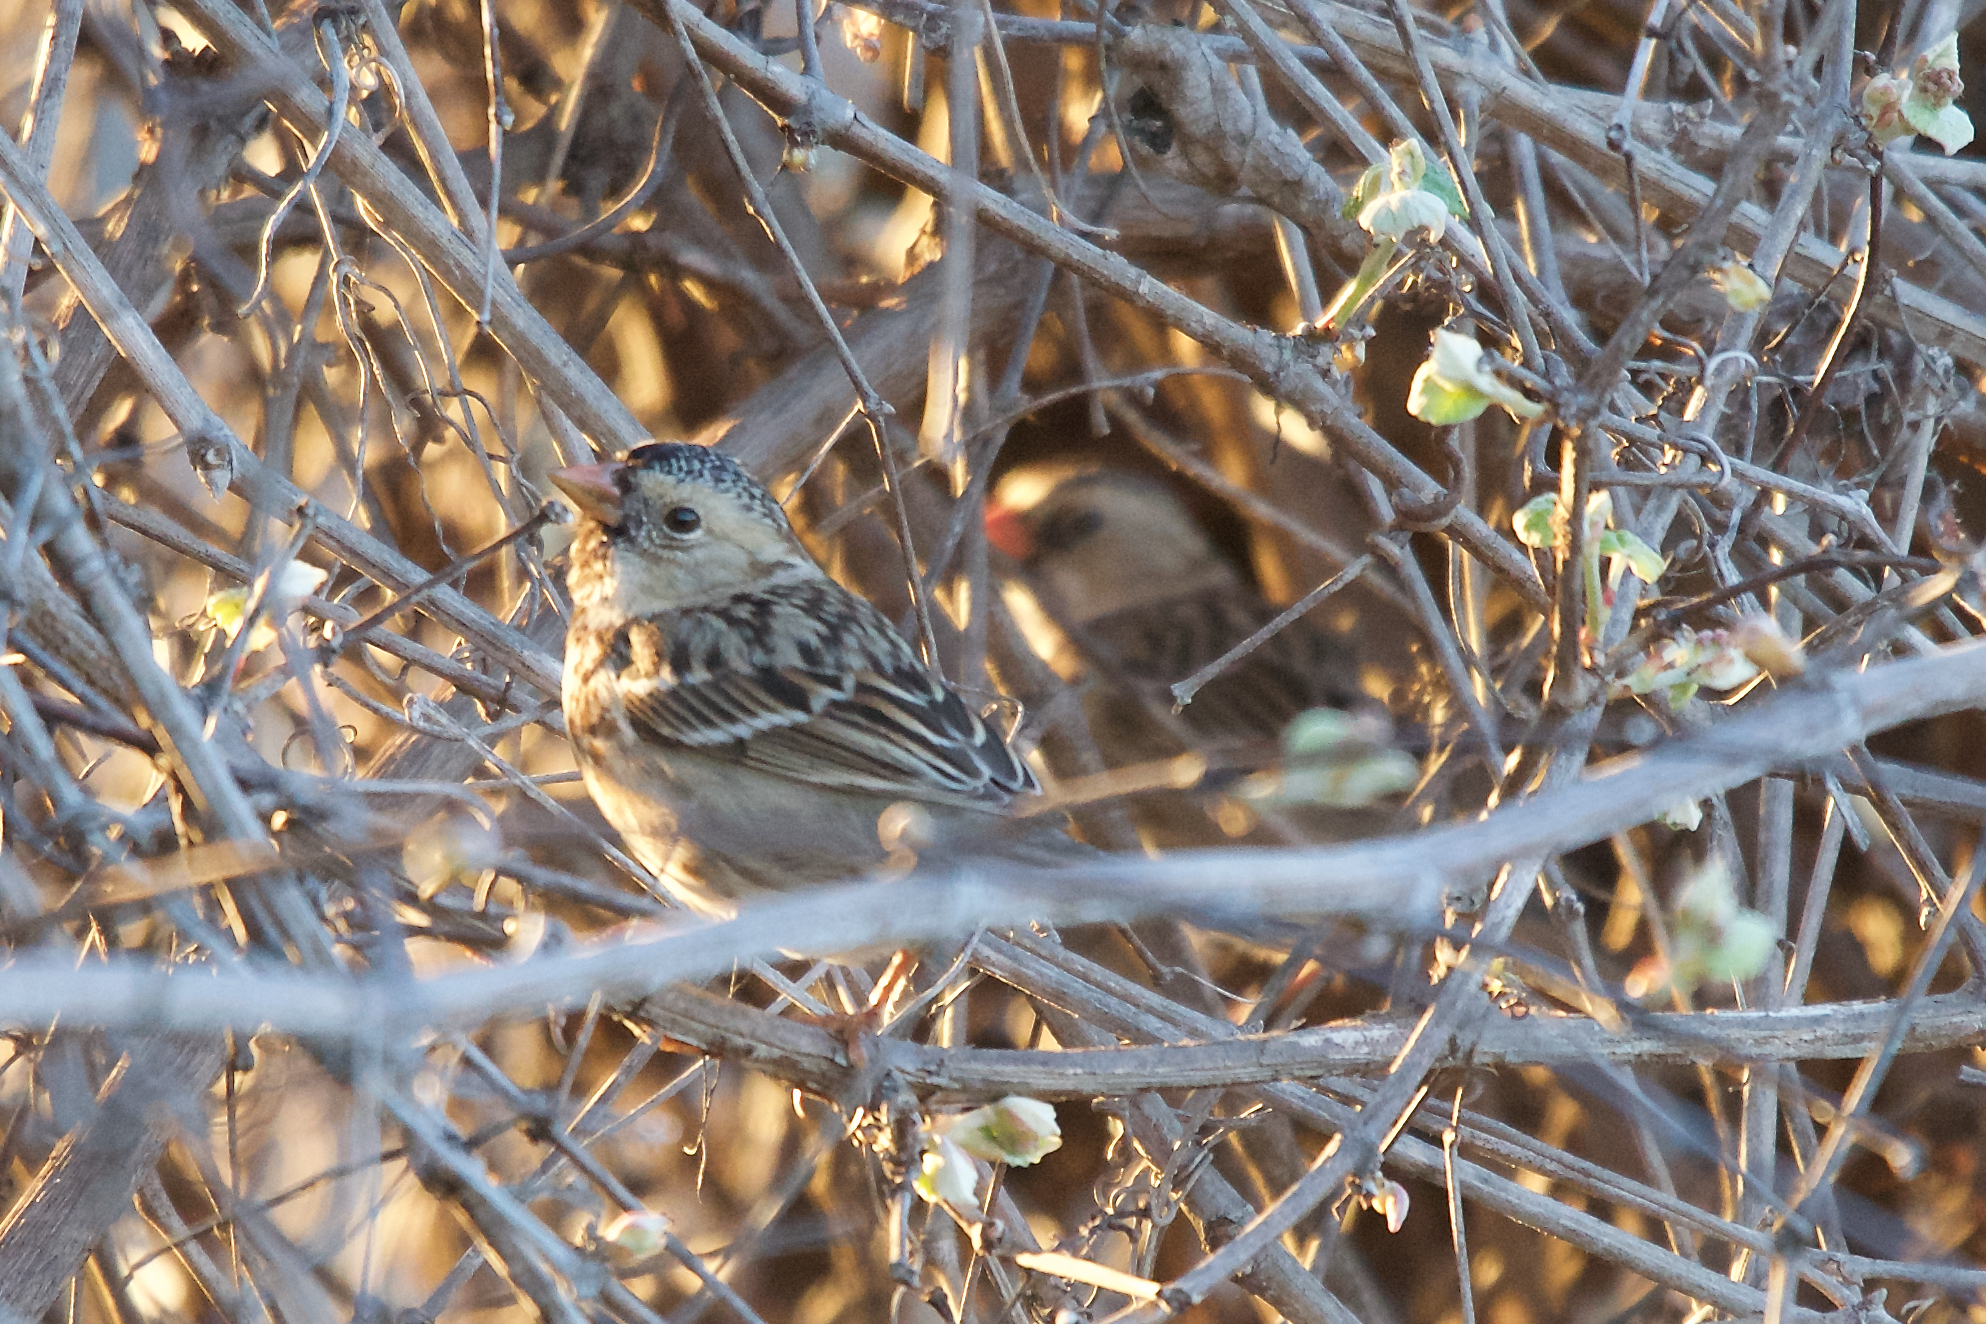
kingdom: Animalia
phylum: Chordata
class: Aves
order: Passeriformes
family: Passerellidae
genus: Zonotrichia
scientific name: Zonotrichia querula
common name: Harris's sparrow
